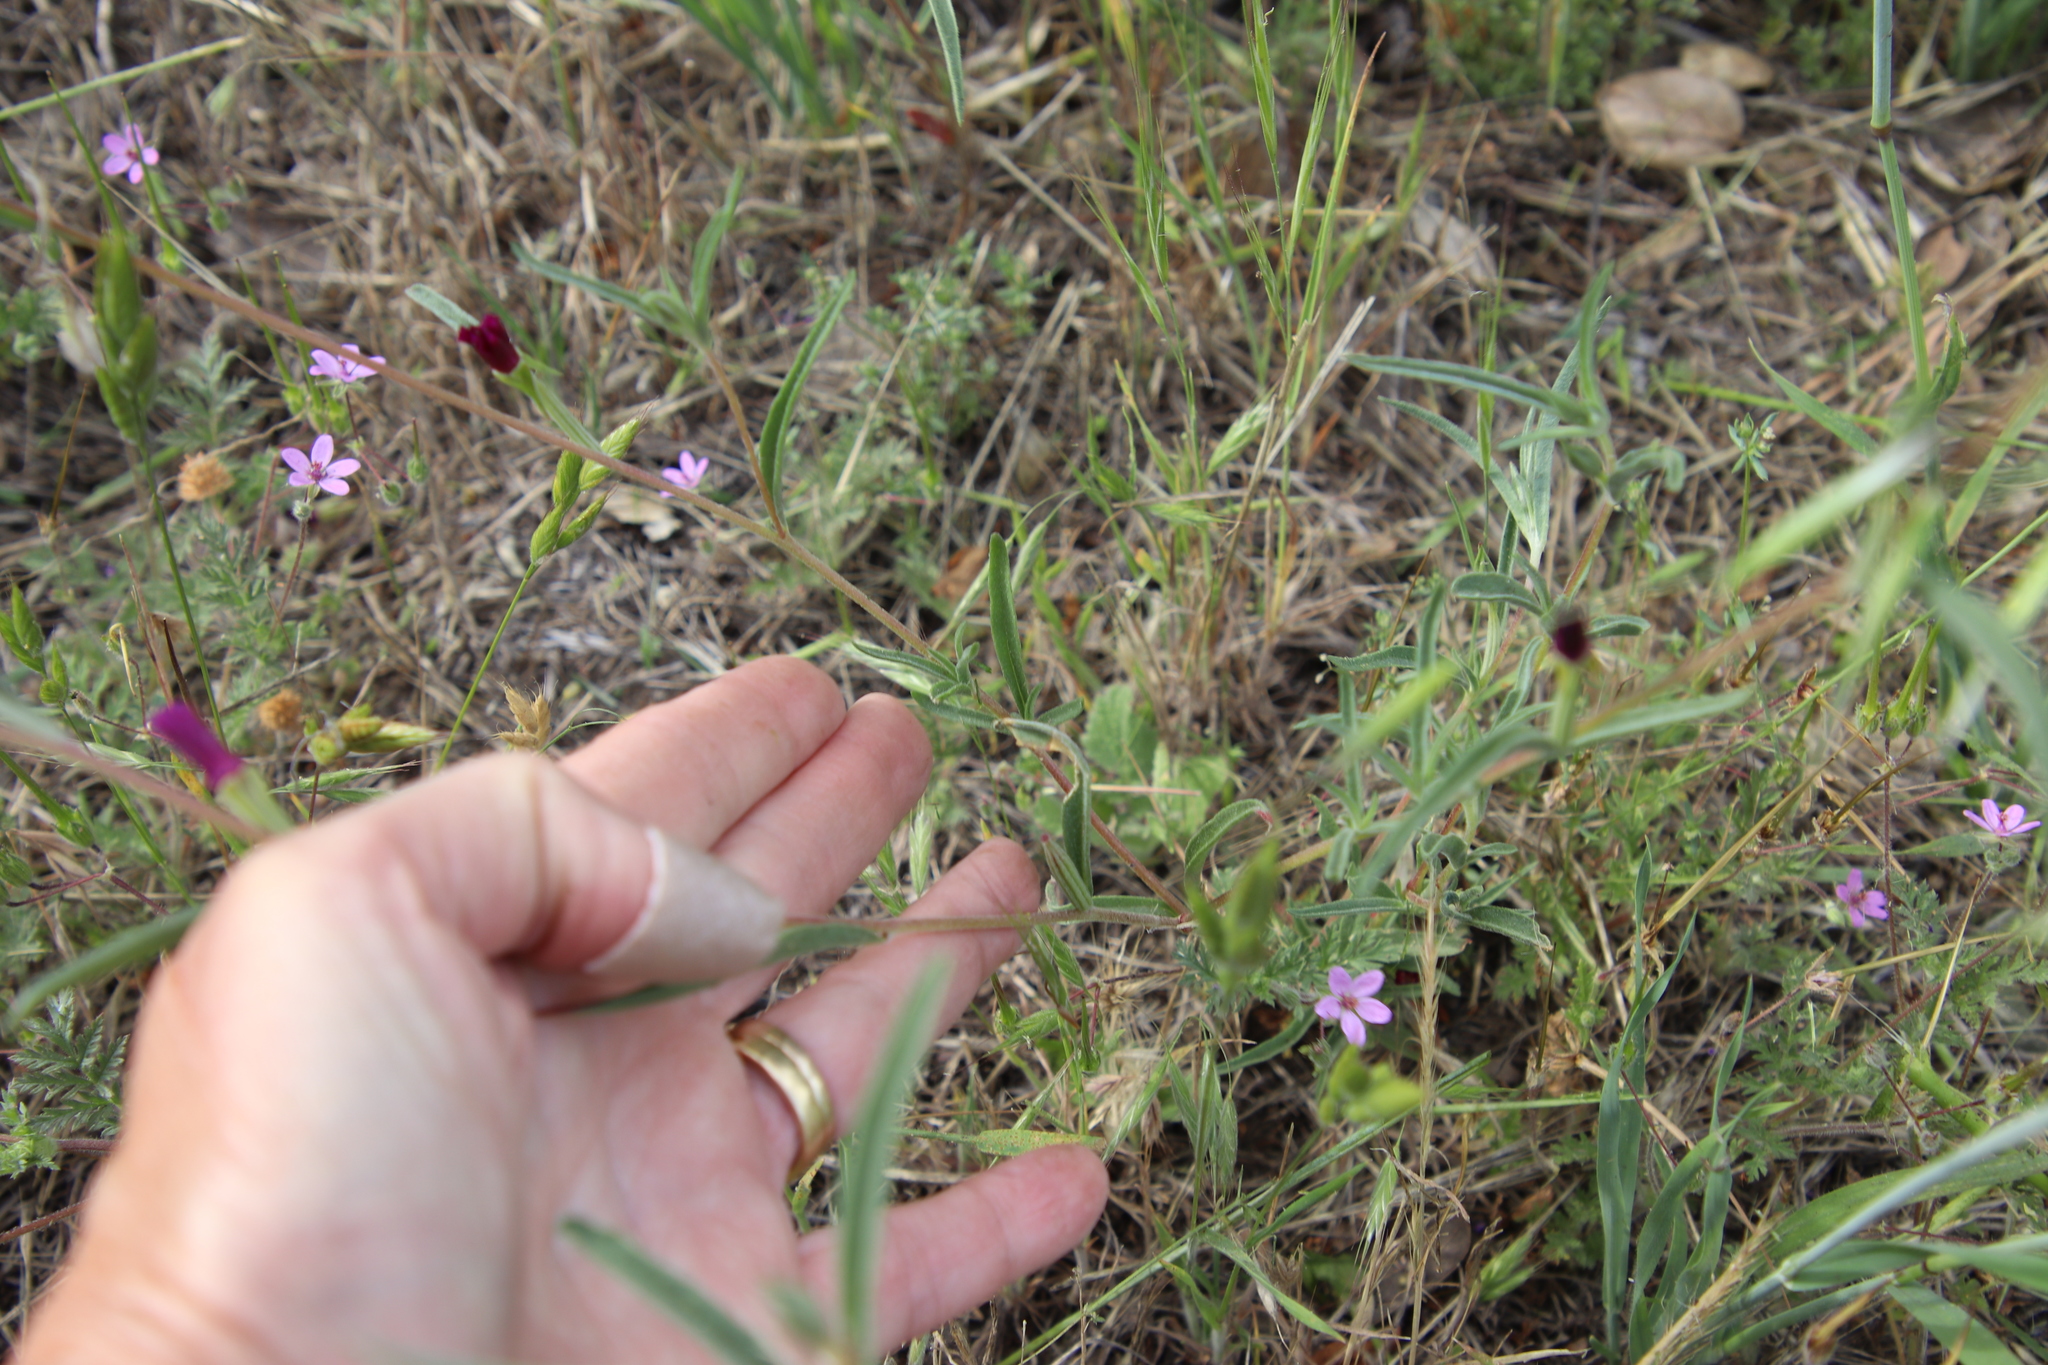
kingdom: Plantae
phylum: Tracheophyta
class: Magnoliopsida
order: Myrtales
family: Onagraceae
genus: Clarkia
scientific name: Clarkia purpurea
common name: Purple clarkia
